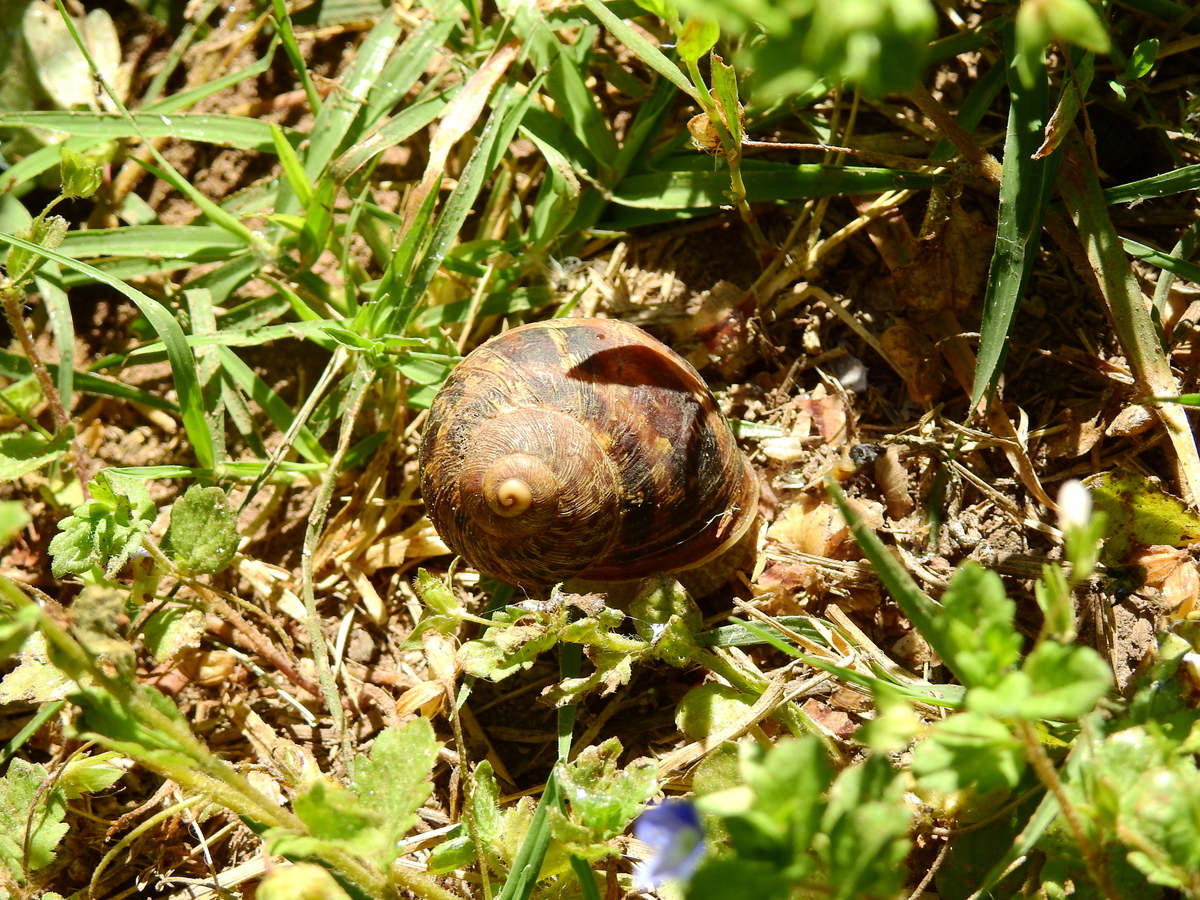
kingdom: Animalia
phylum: Mollusca
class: Gastropoda
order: Stylommatophora
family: Helicidae
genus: Cornu
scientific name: Cornu aspersum
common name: Brown garden snail
